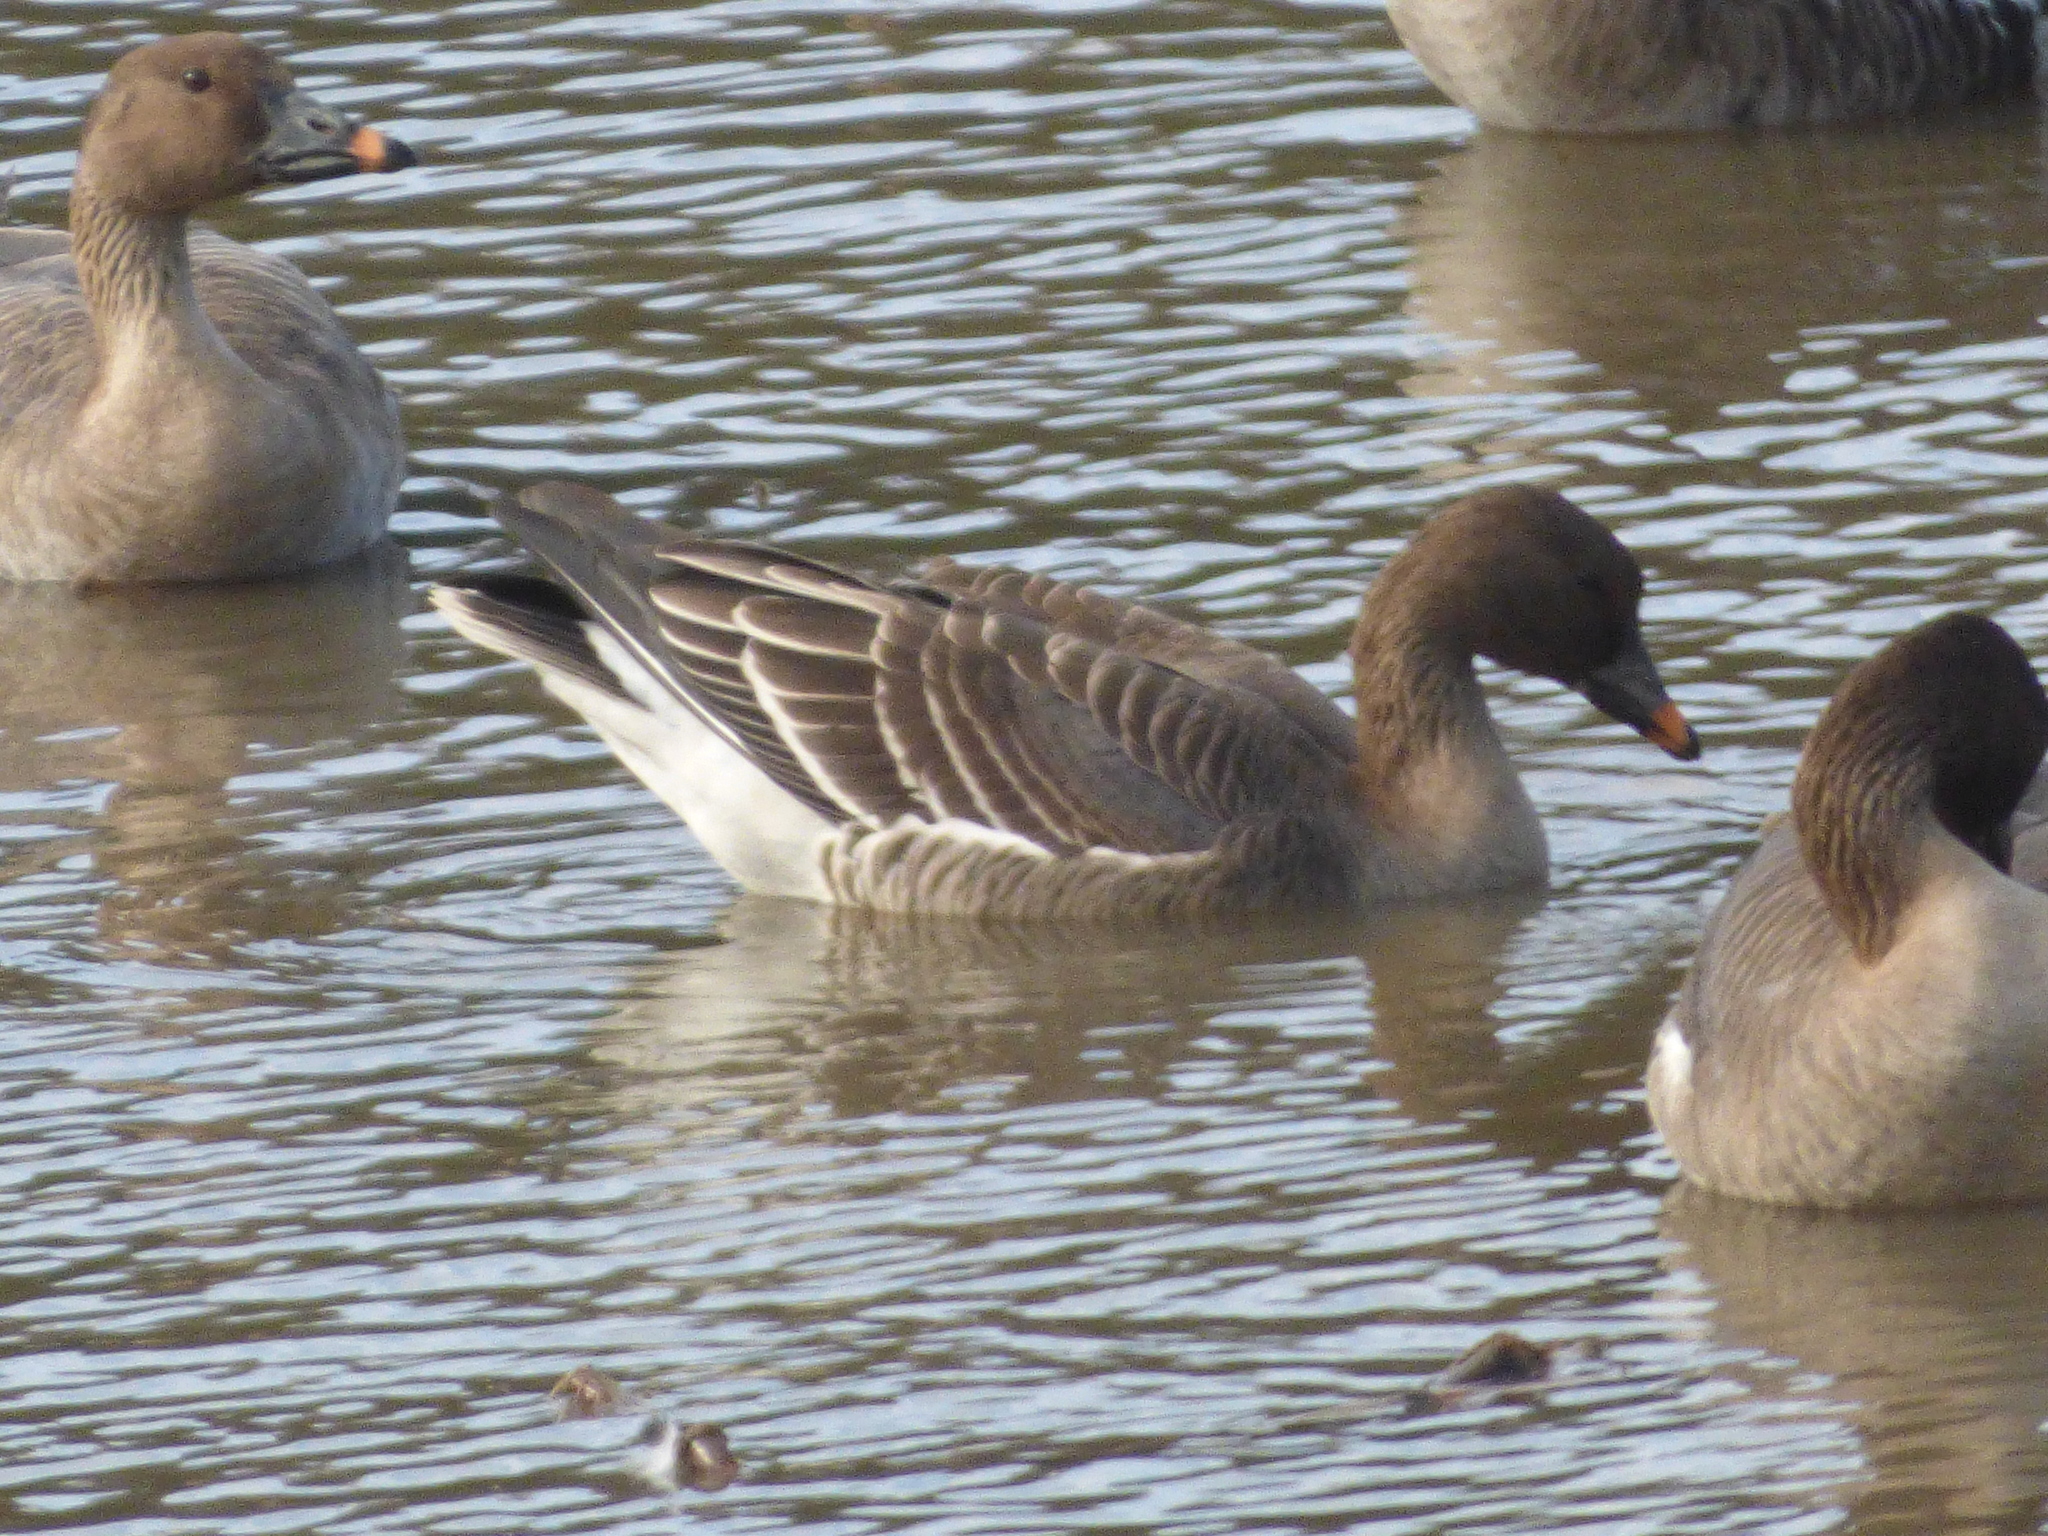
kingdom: Animalia
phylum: Chordata
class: Aves
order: Anseriformes
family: Anatidae
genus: Anser
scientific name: Anser serrirostris
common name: Tundra bean goose
